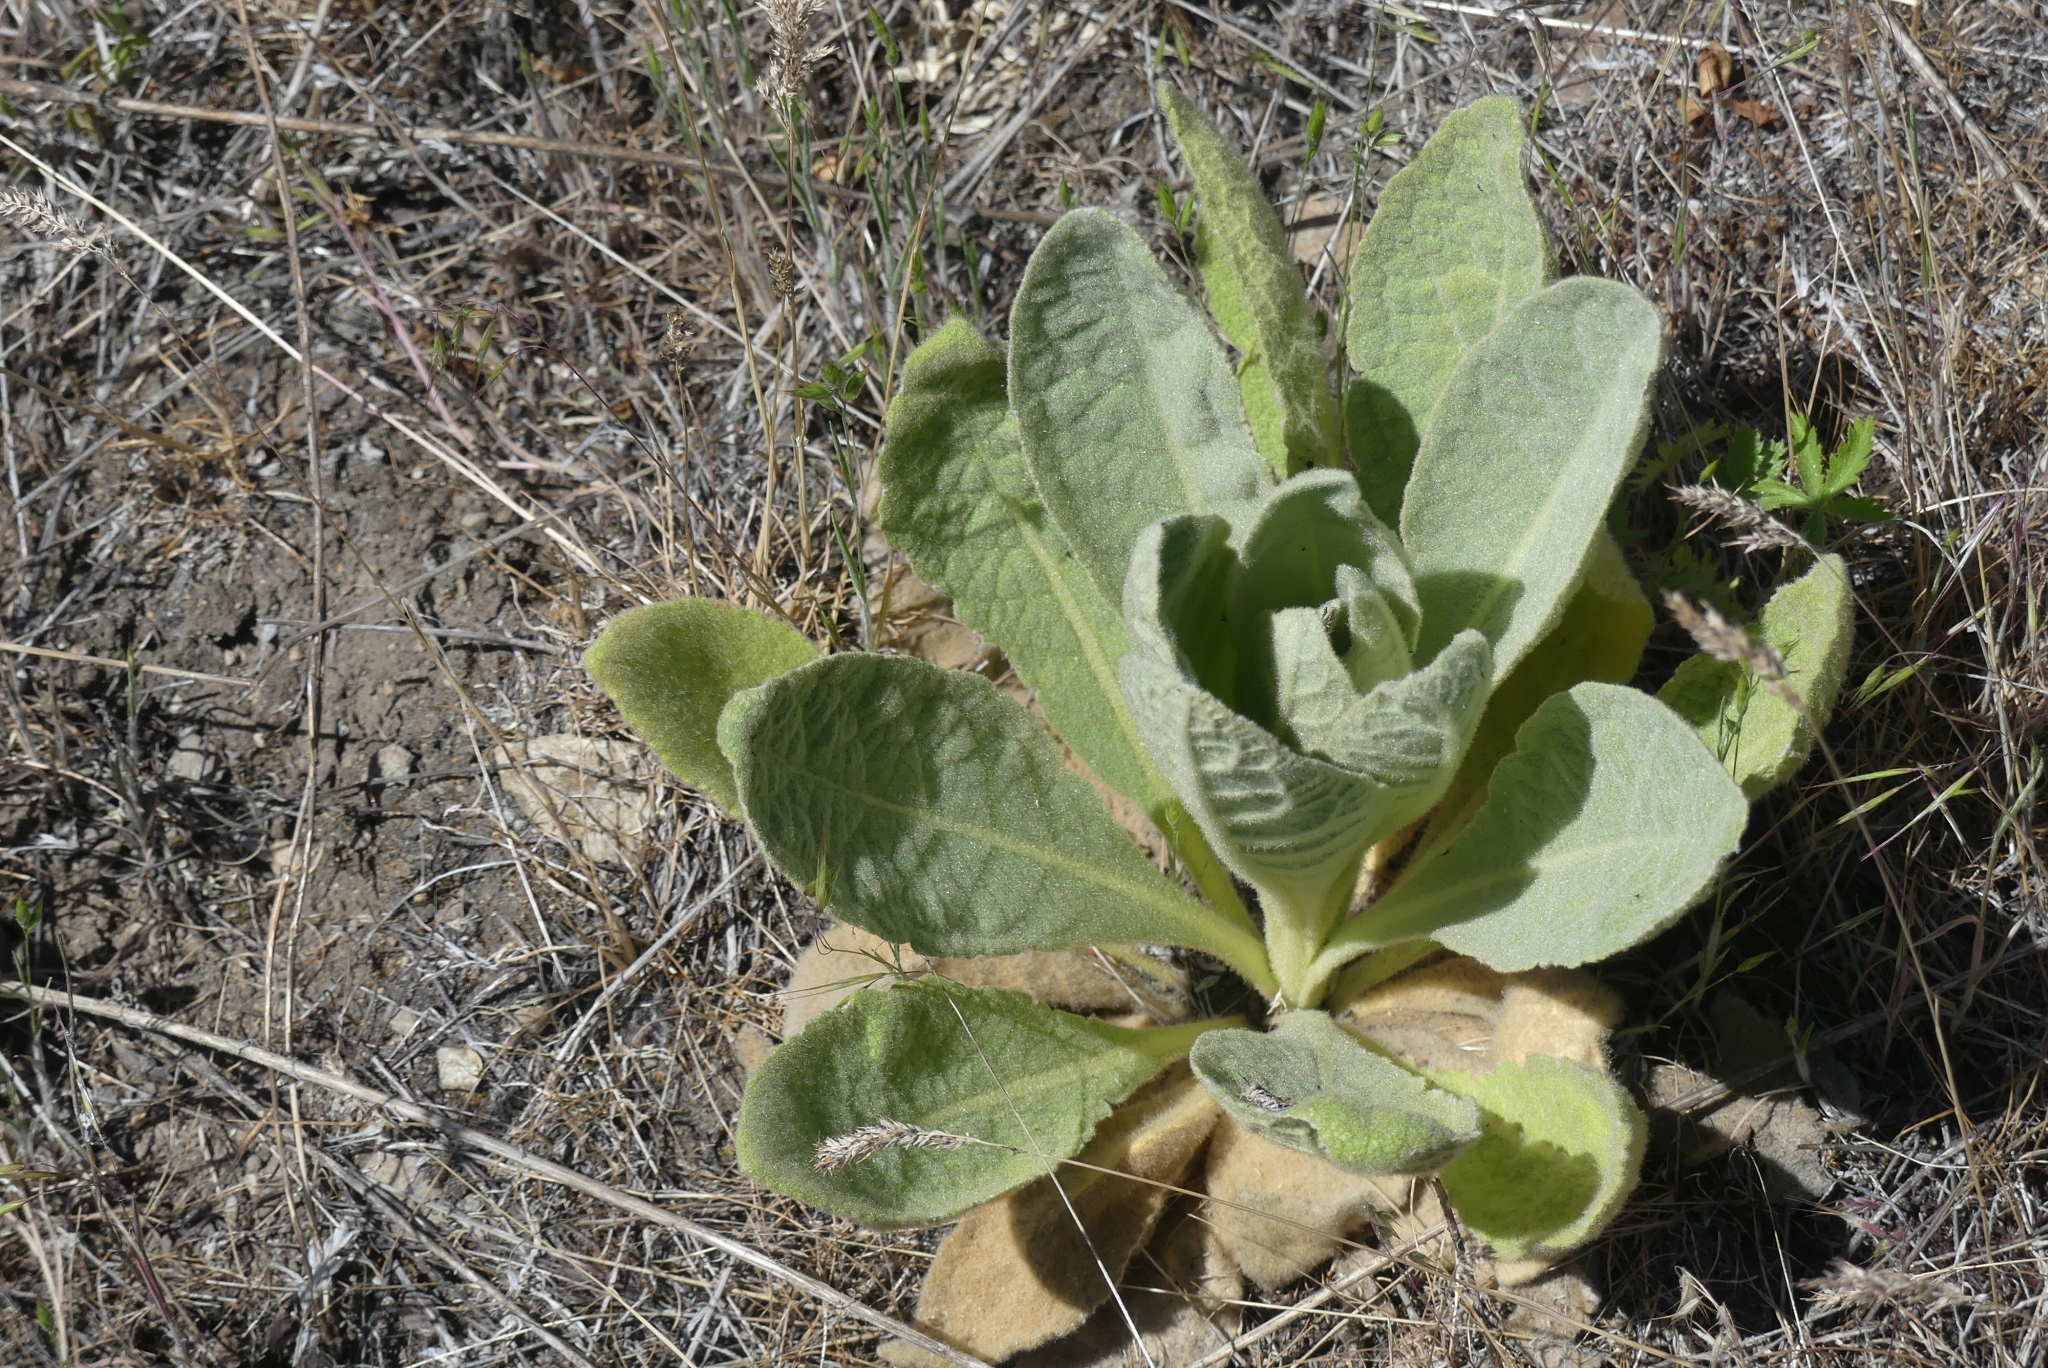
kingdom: Plantae
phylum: Tracheophyta
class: Magnoliopsida
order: Lamiales
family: Scrophulariaceae
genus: Verbascum
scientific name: Verbascum thapsus
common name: Common mullein
